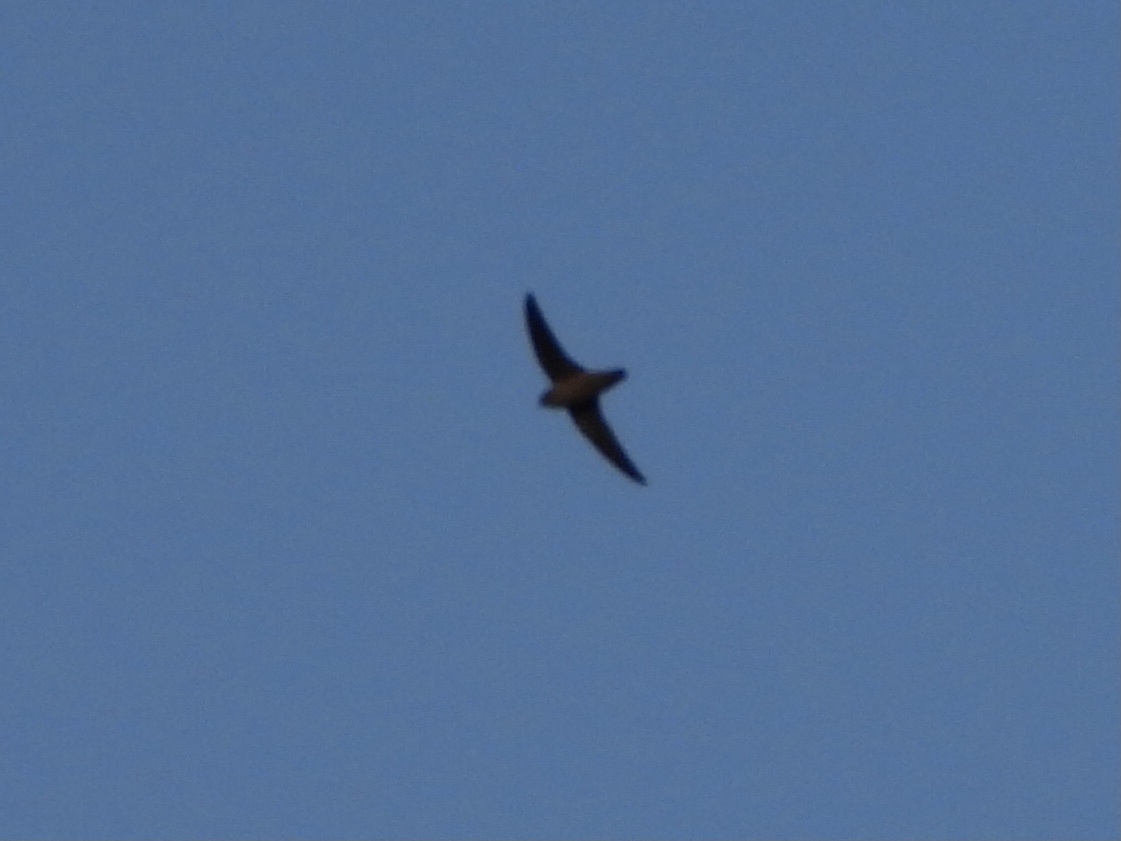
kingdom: Animalia
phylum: Chordata
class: Aves
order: Apodiformes
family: Apodidae
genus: Chaetura
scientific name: Chaetura vauxi
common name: Vaux's swift
